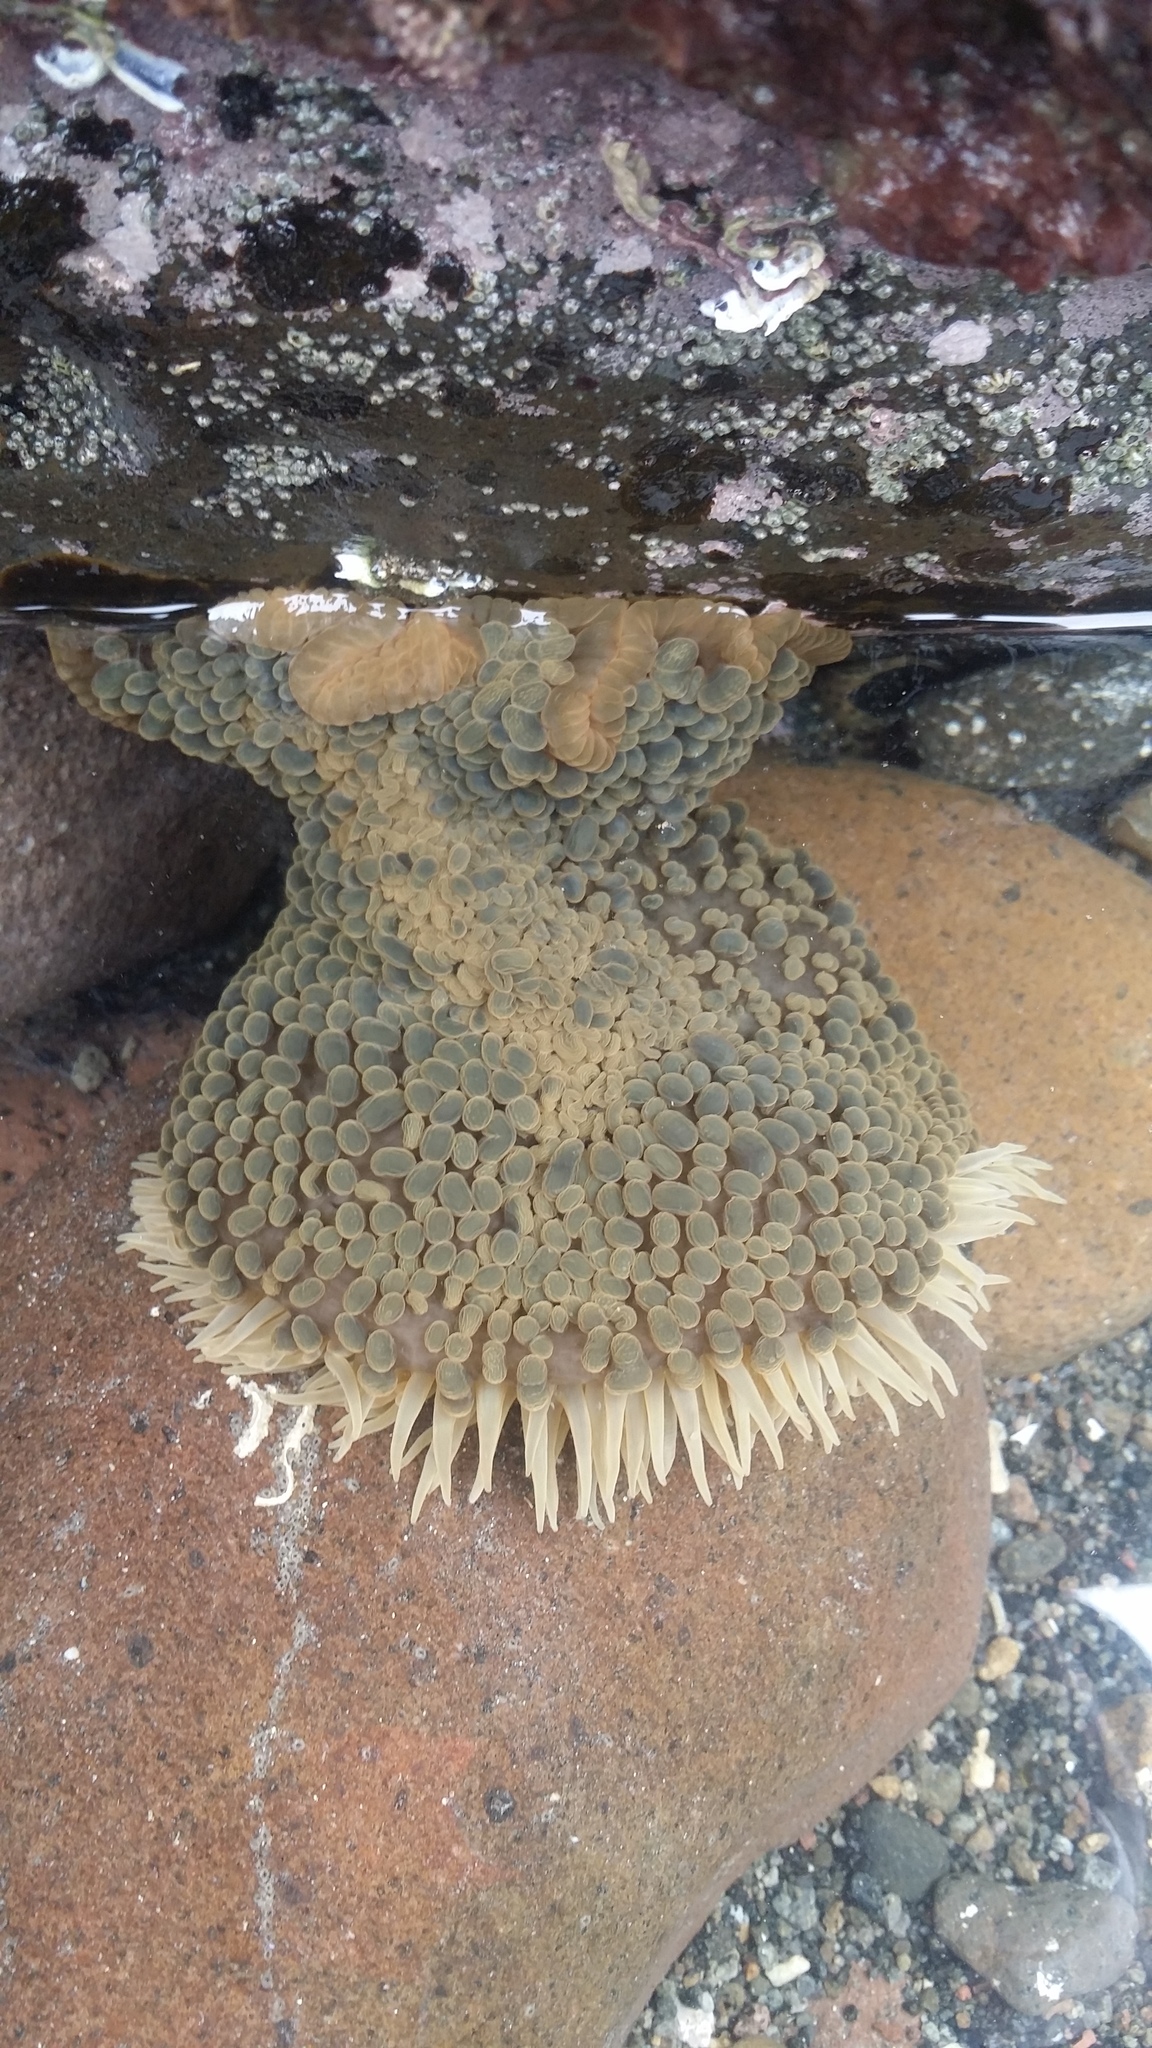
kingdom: Animalia
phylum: Cnidaria
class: Anthozoa
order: Actiniaria
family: Actiniidae
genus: Phlyctenactis
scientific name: Phlyctenactis tuberculosa
